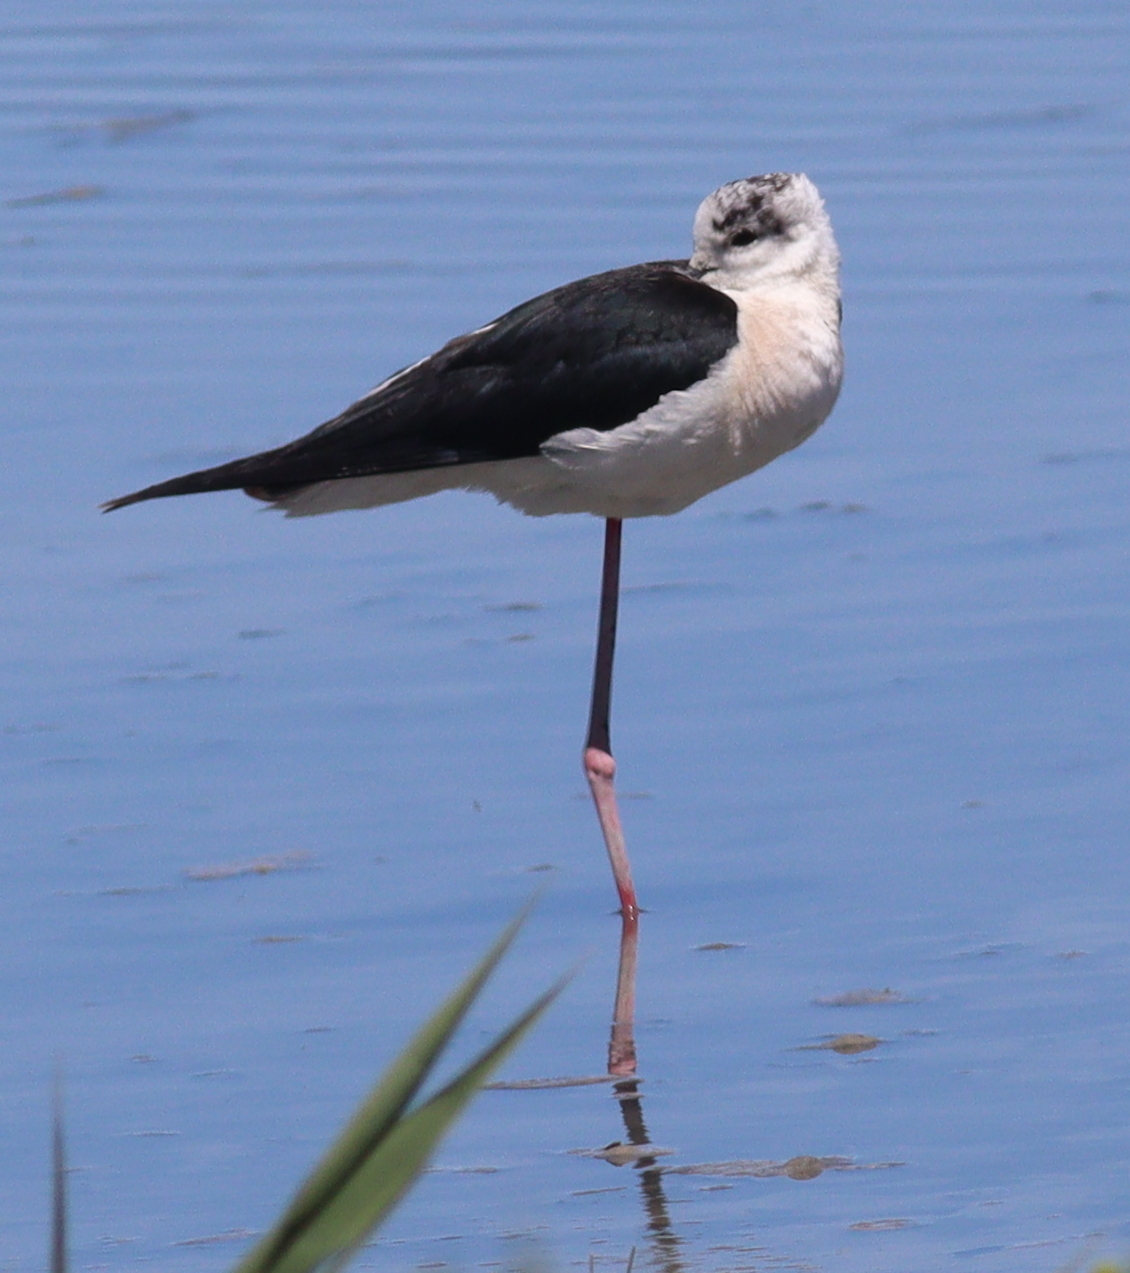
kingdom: Animalia
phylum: Chordata
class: Aves
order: Charadriiformes
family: Recurvirostridae
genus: Himantopus
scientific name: Himantopus himantopus
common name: Black-winged stilt
